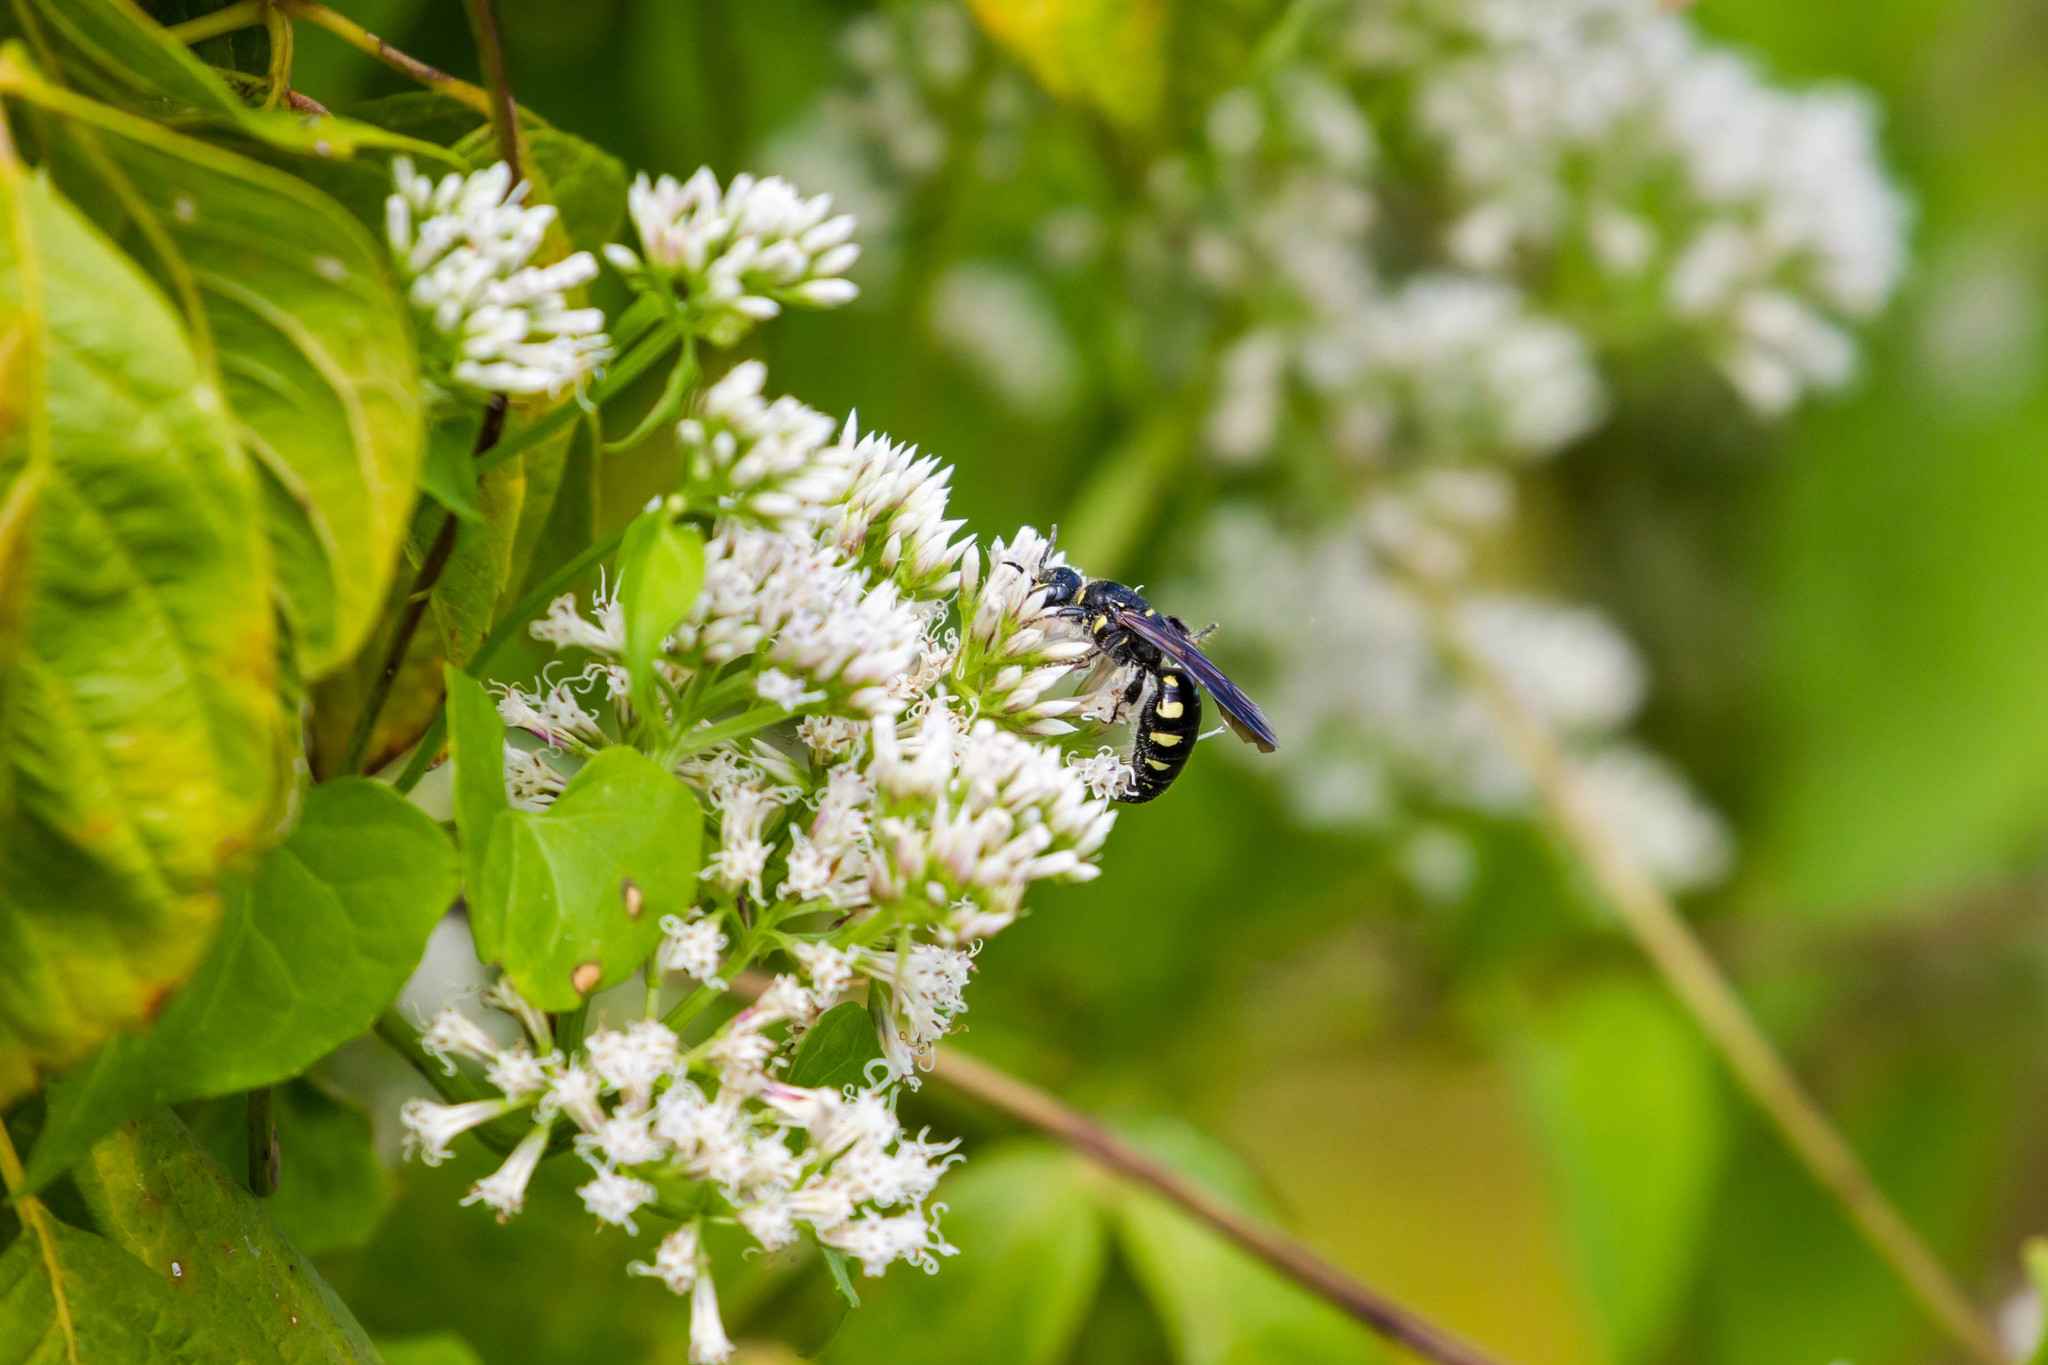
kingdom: Animalia
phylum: Arthropoda
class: Insecta
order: Hymenoptera
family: Tiphiidae
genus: Myzinum
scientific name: Myzinum obscurum
